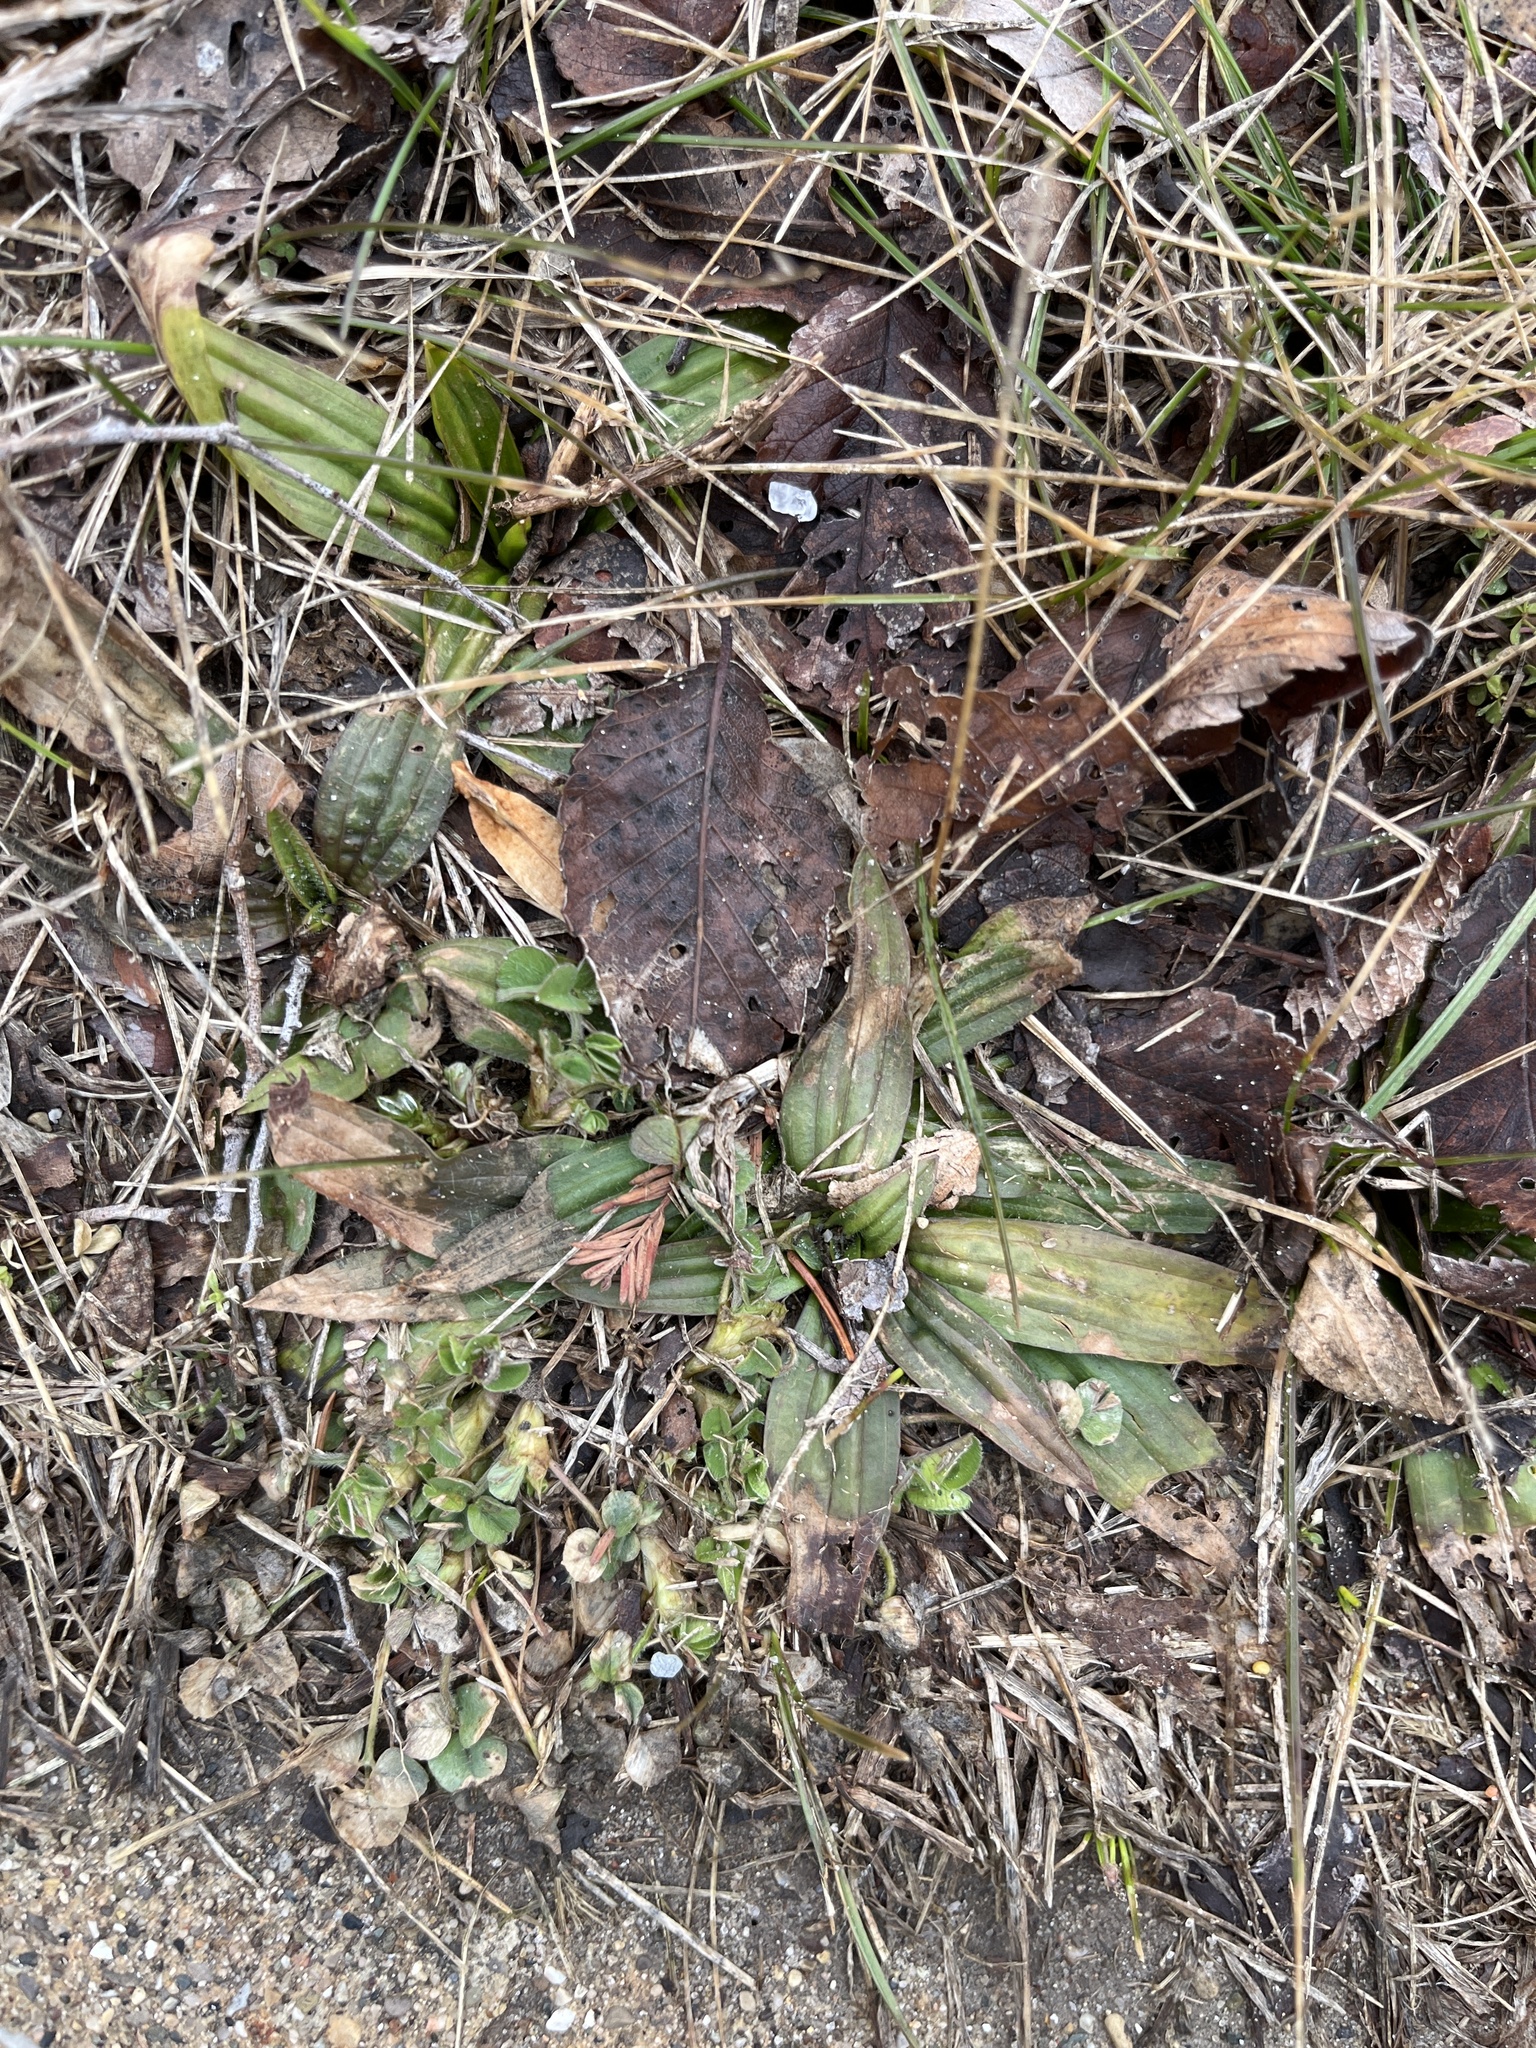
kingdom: Plantae
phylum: Tracheophyta
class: Magnoliopsida
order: Lamiales
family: Plantaginaceae
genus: Plantago
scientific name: Plantago lanceolata
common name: Ribwort plantain
